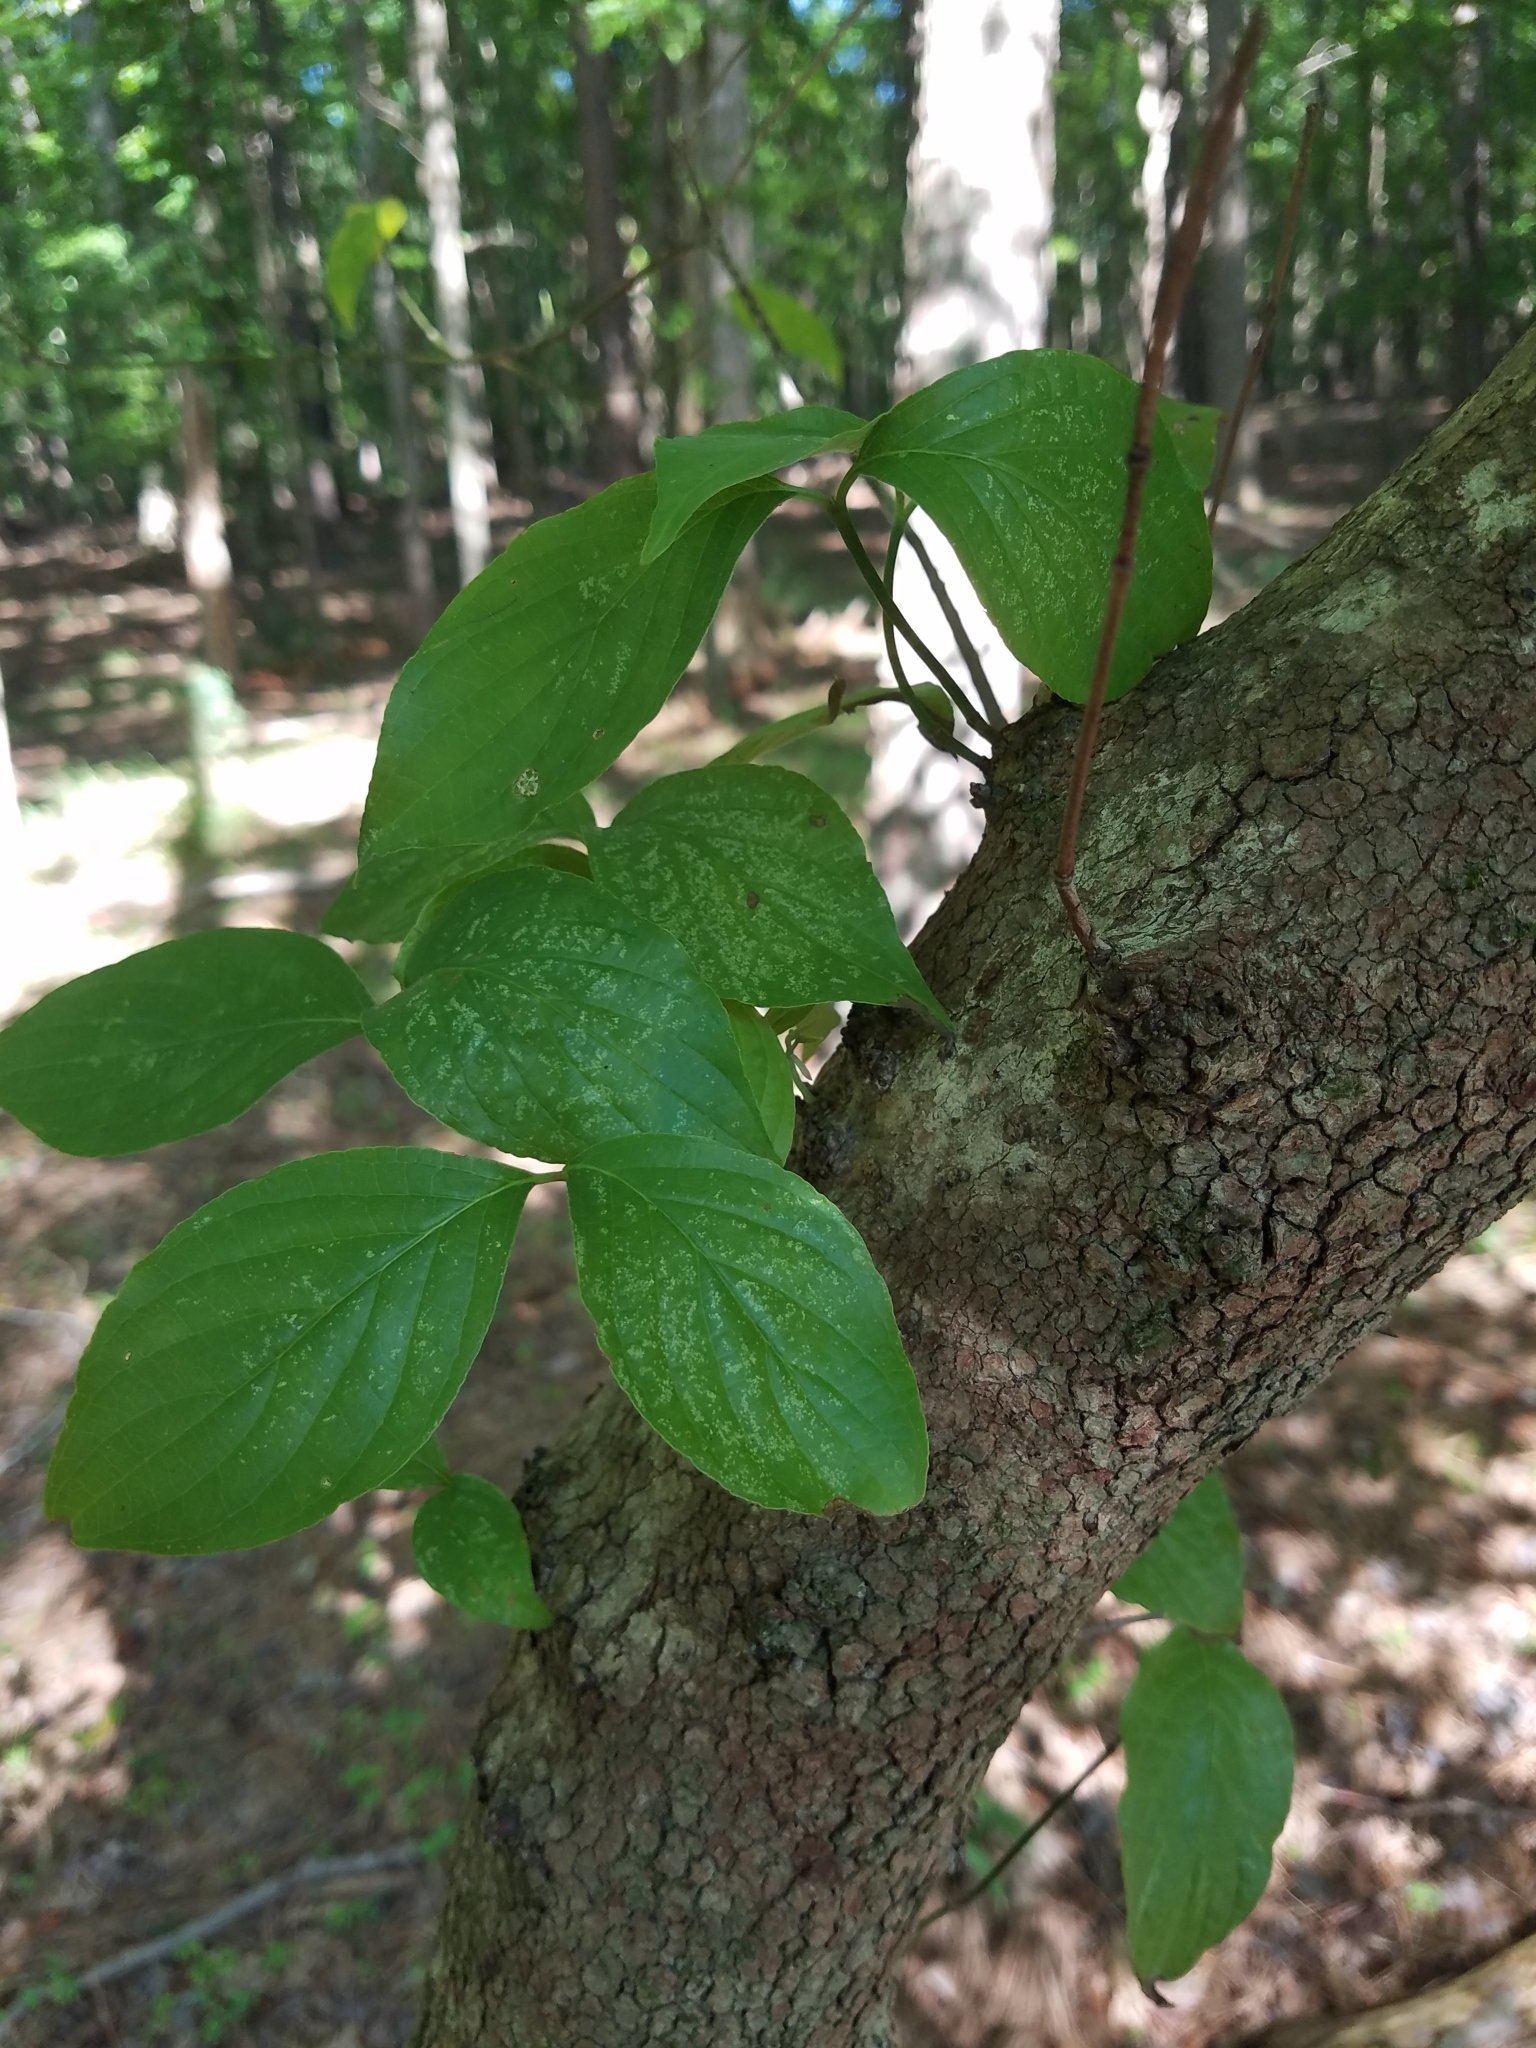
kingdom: Plantae
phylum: Tracheophyta
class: Magnoliopsida
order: Cornales
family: Cornaceae
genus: Cornus
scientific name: Cornus florida
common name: Flowering dogwood
